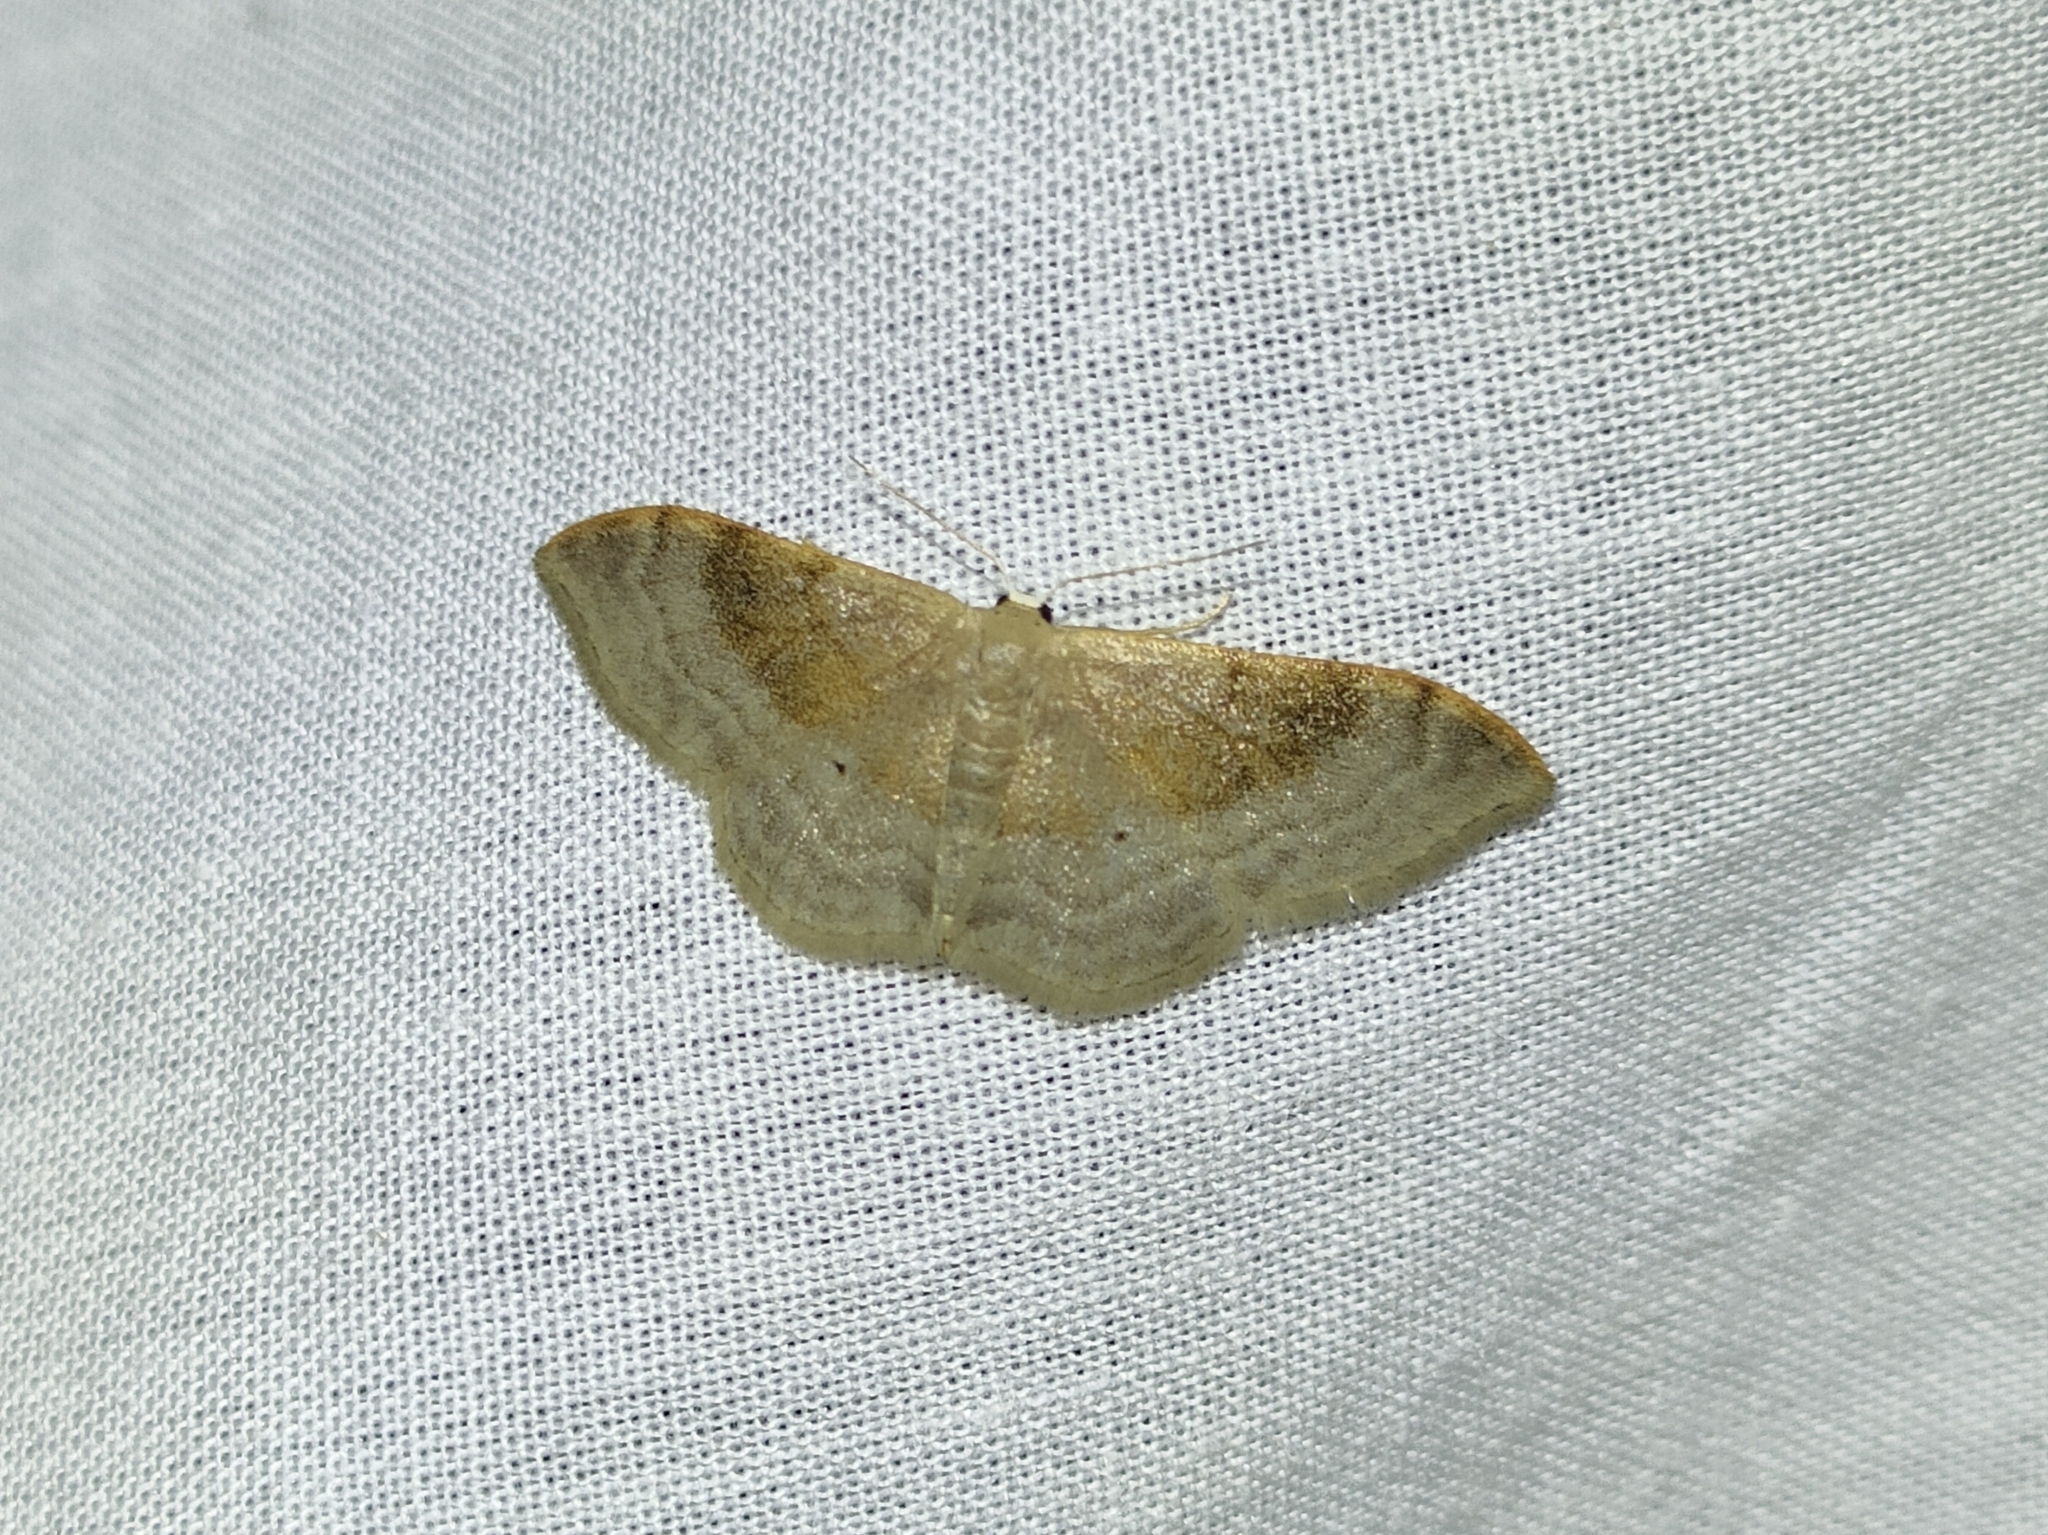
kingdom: Animalia
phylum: Arthropoda
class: Insecta
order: Lepidoptera
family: Geometridae
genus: Idaea
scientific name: Idaea degeneraria
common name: Portland ribbon wave
